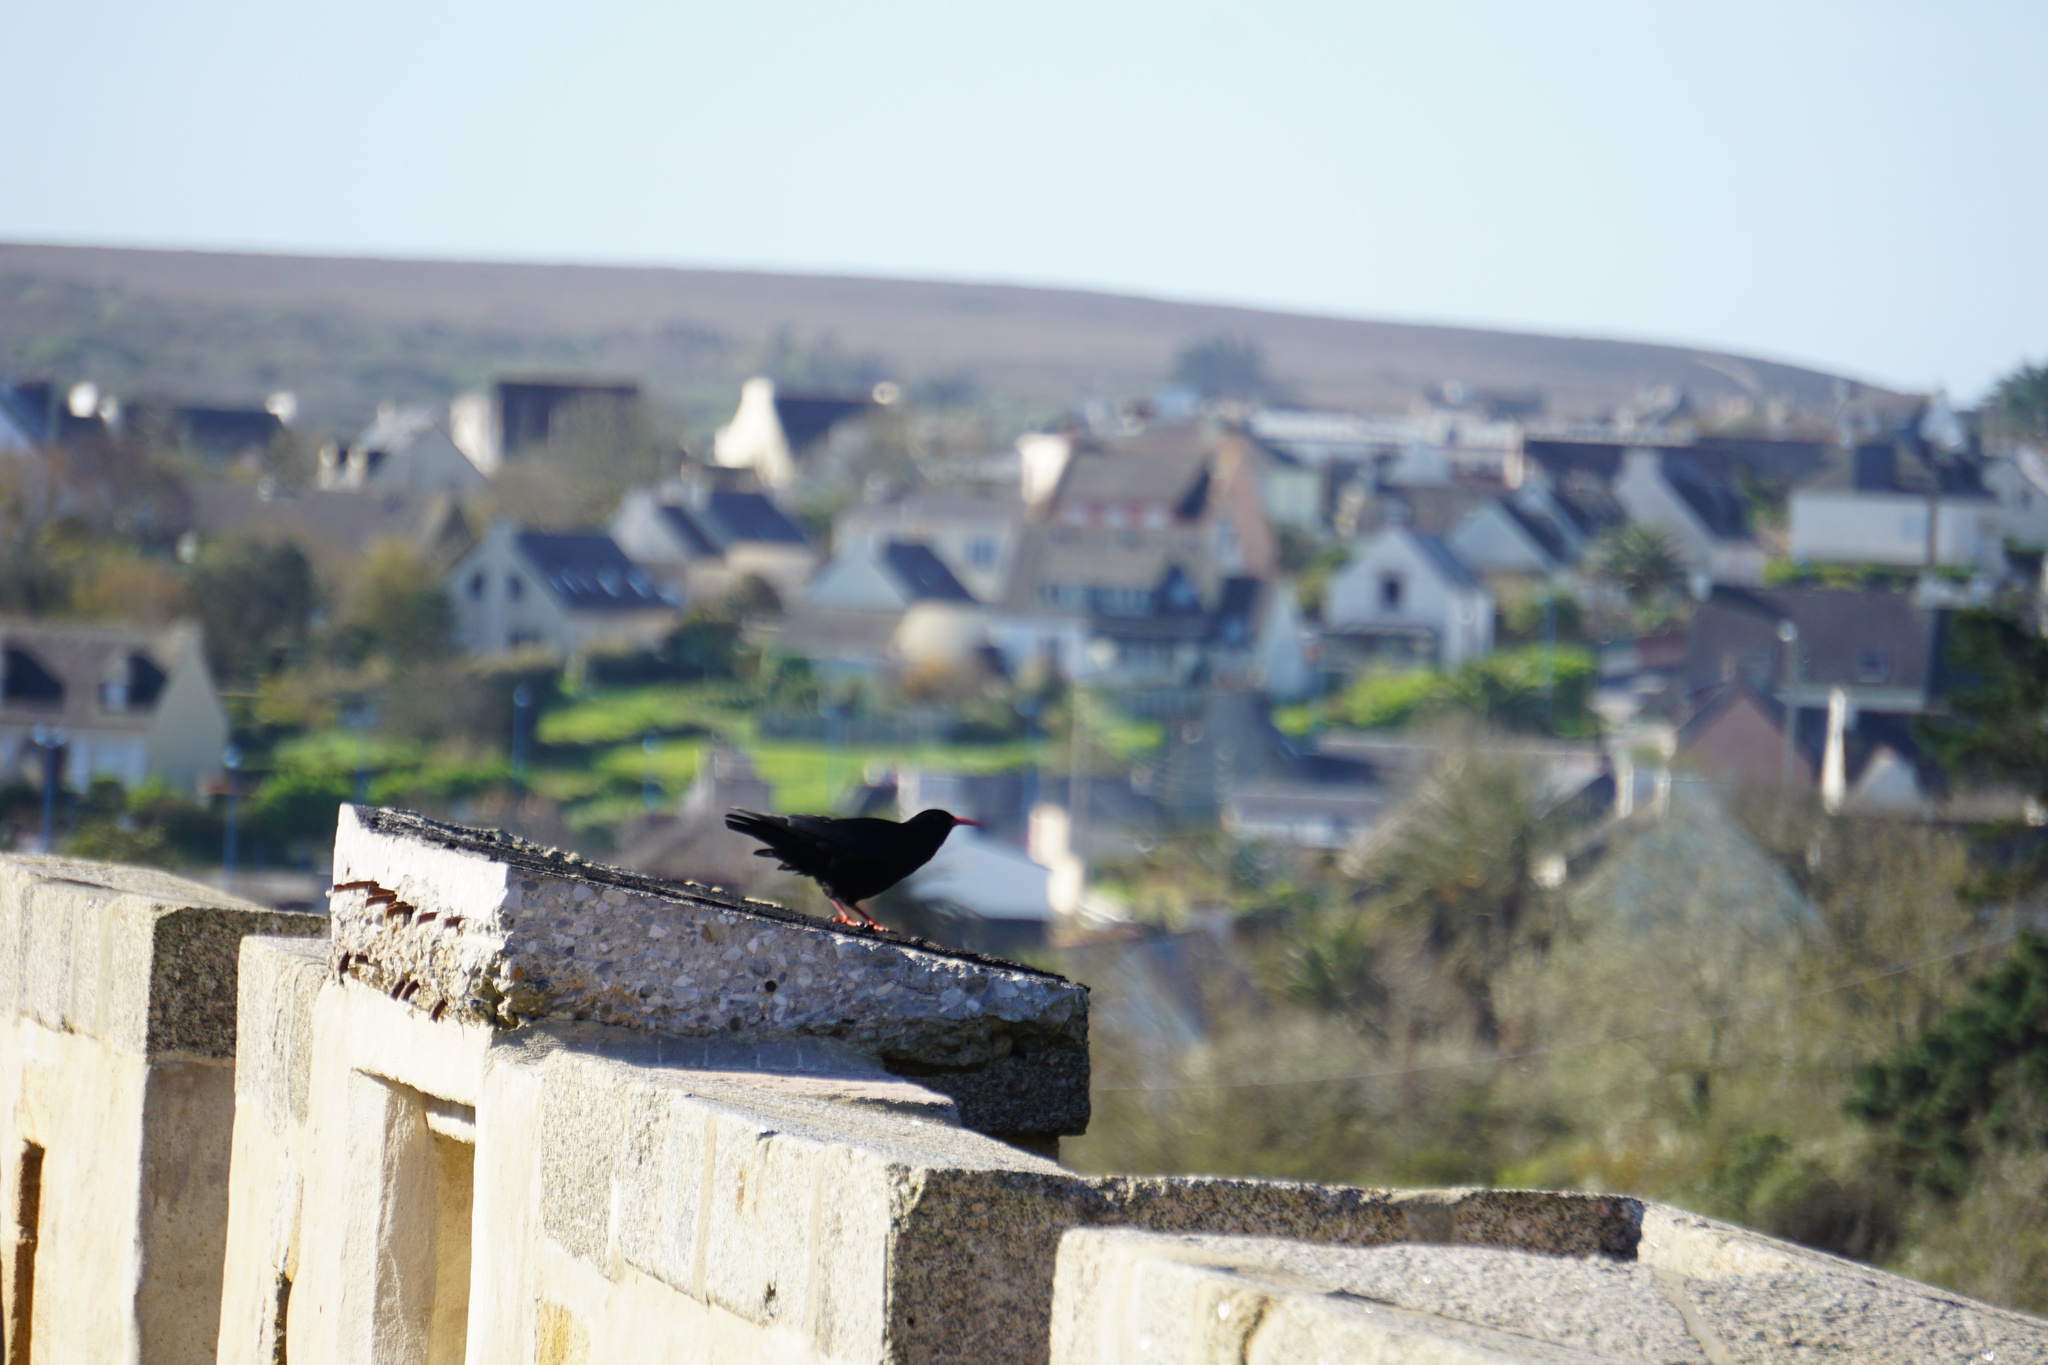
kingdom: Animalia
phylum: Chordata
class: Aves
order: Passeriformes
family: Corvidae
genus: Pyrrhocorax
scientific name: Pyrrhocorax pyrrhocorax
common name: Red-billed chough
